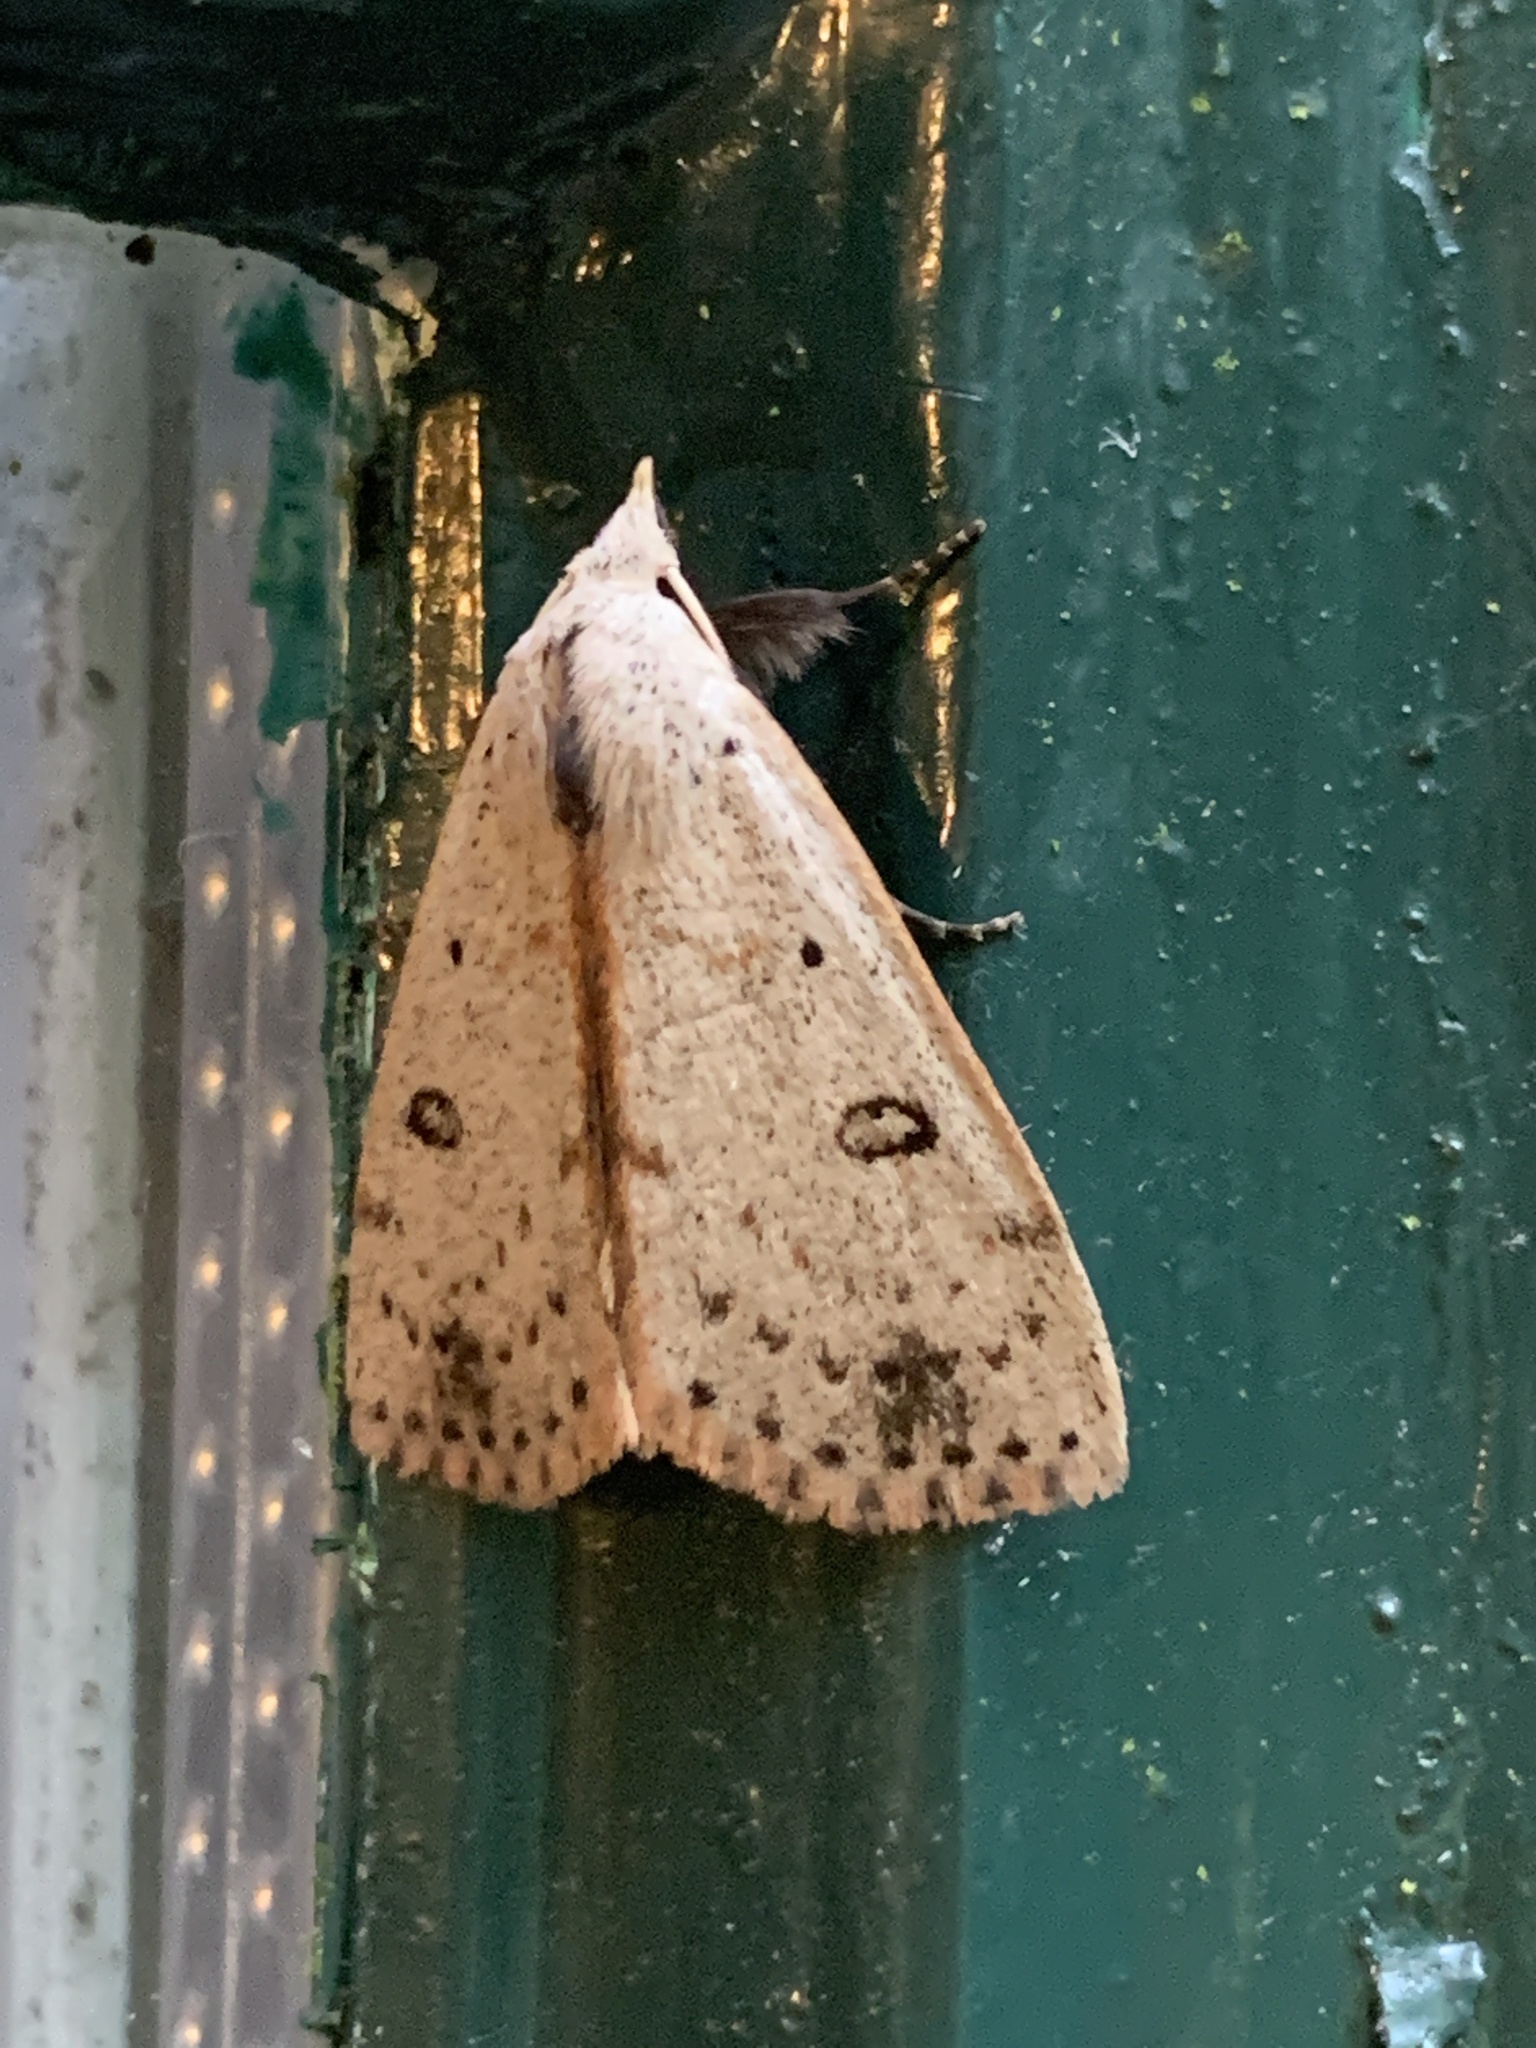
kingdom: Animalia
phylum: Arthropoda
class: Insecta
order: Lepidoptera
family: Erebidae
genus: Scolecocampa
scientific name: Scolecocampa liburna
